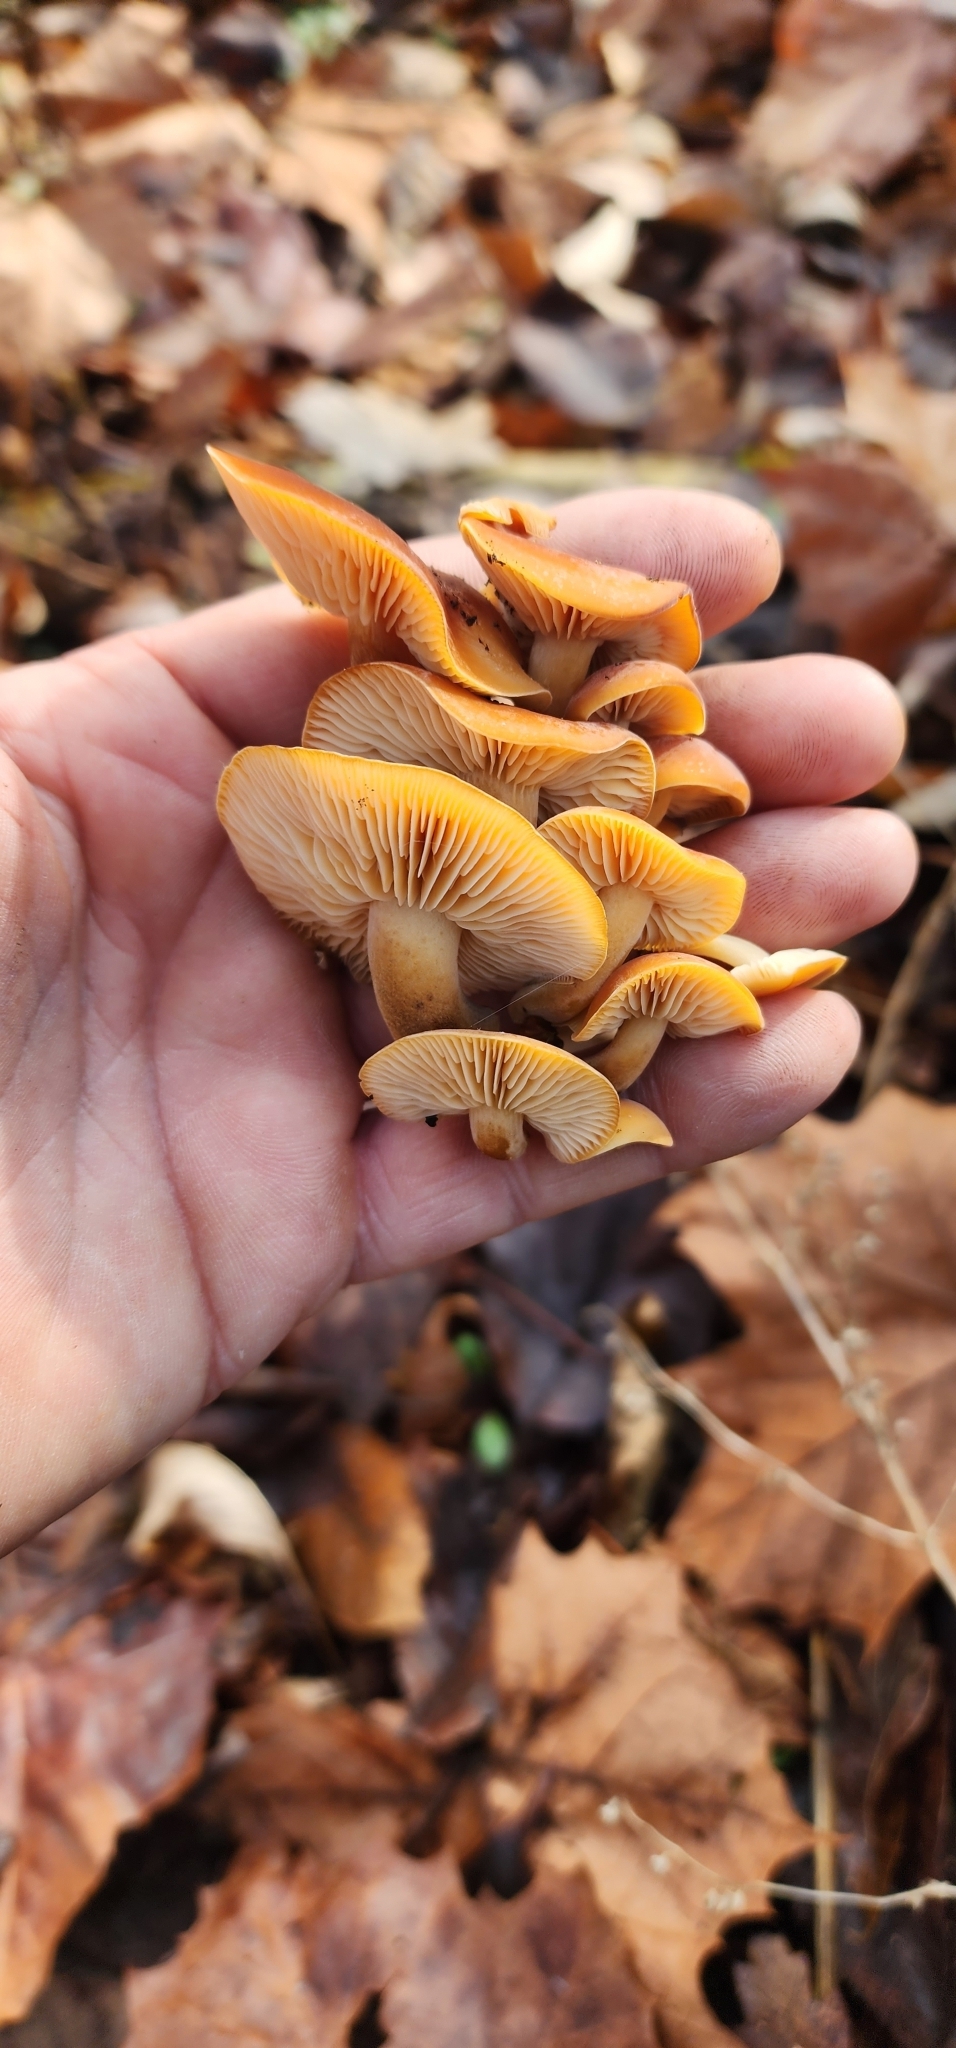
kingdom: Fungi
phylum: Basidiomycota
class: Agaricomycetes
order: Agaricales
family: Physalacriaceae
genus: Flammulina
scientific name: Flammulina velutipes
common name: Velvet shank
